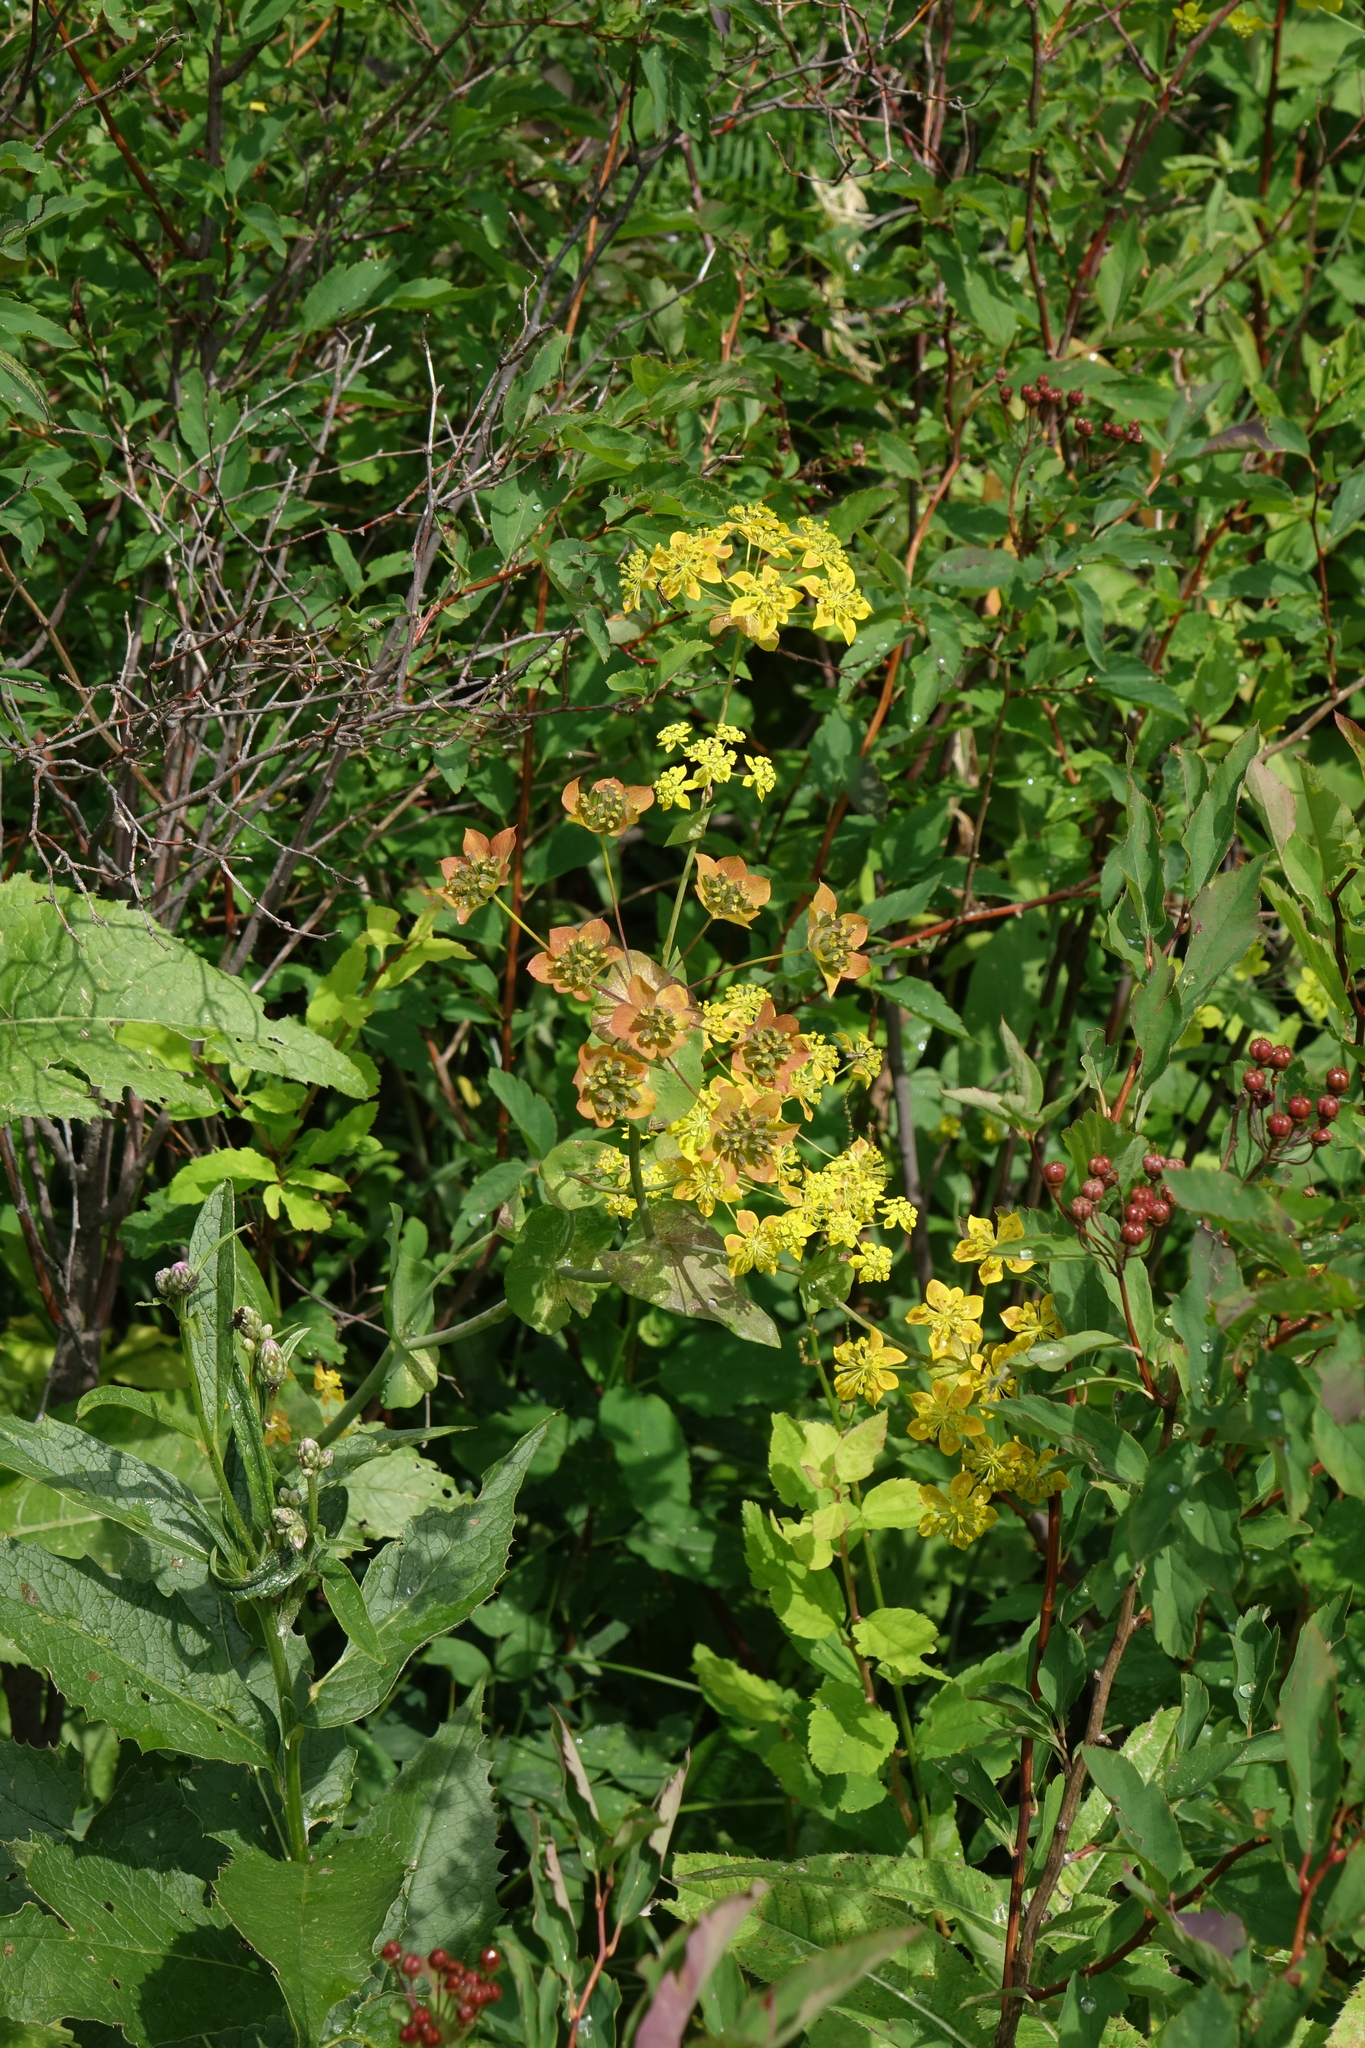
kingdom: Plantae
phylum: Tracheophyta
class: Magnoliopsida
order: Apiales
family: Apiaceae
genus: Bupleurum
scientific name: Bupleurum aureum
